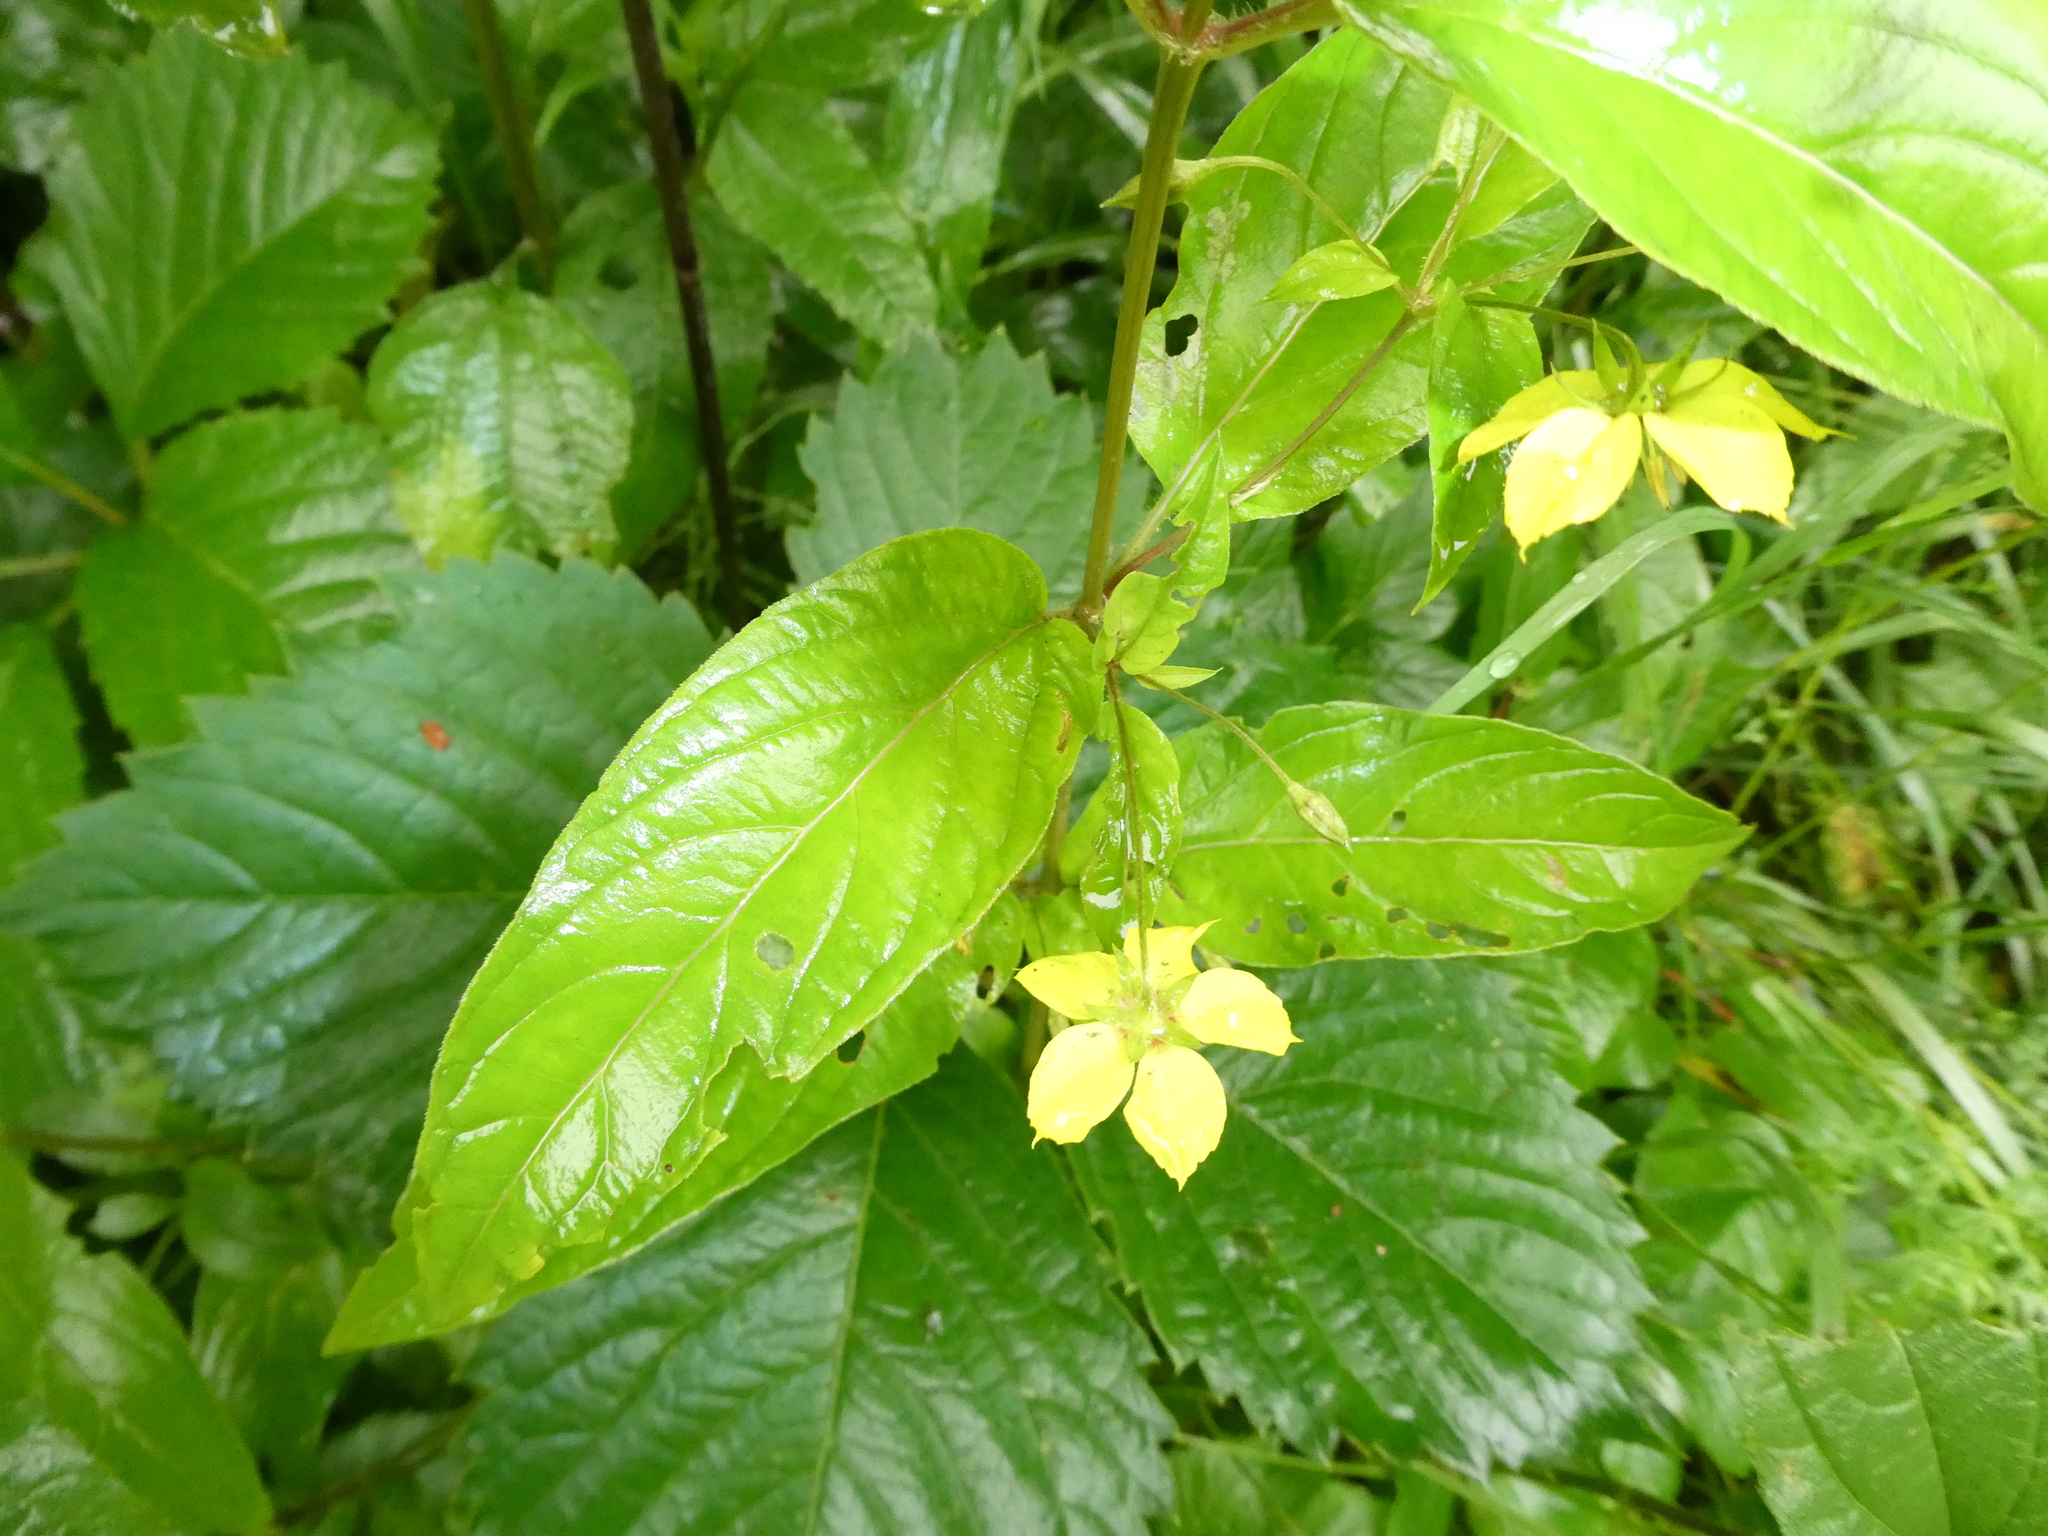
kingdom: Plantae
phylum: Tracheophyta
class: Magnoliopsida
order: Ericales
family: Primulaceae
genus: Lysimachia
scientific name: Lysimachia ciliata
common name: Fringed loosestrife
